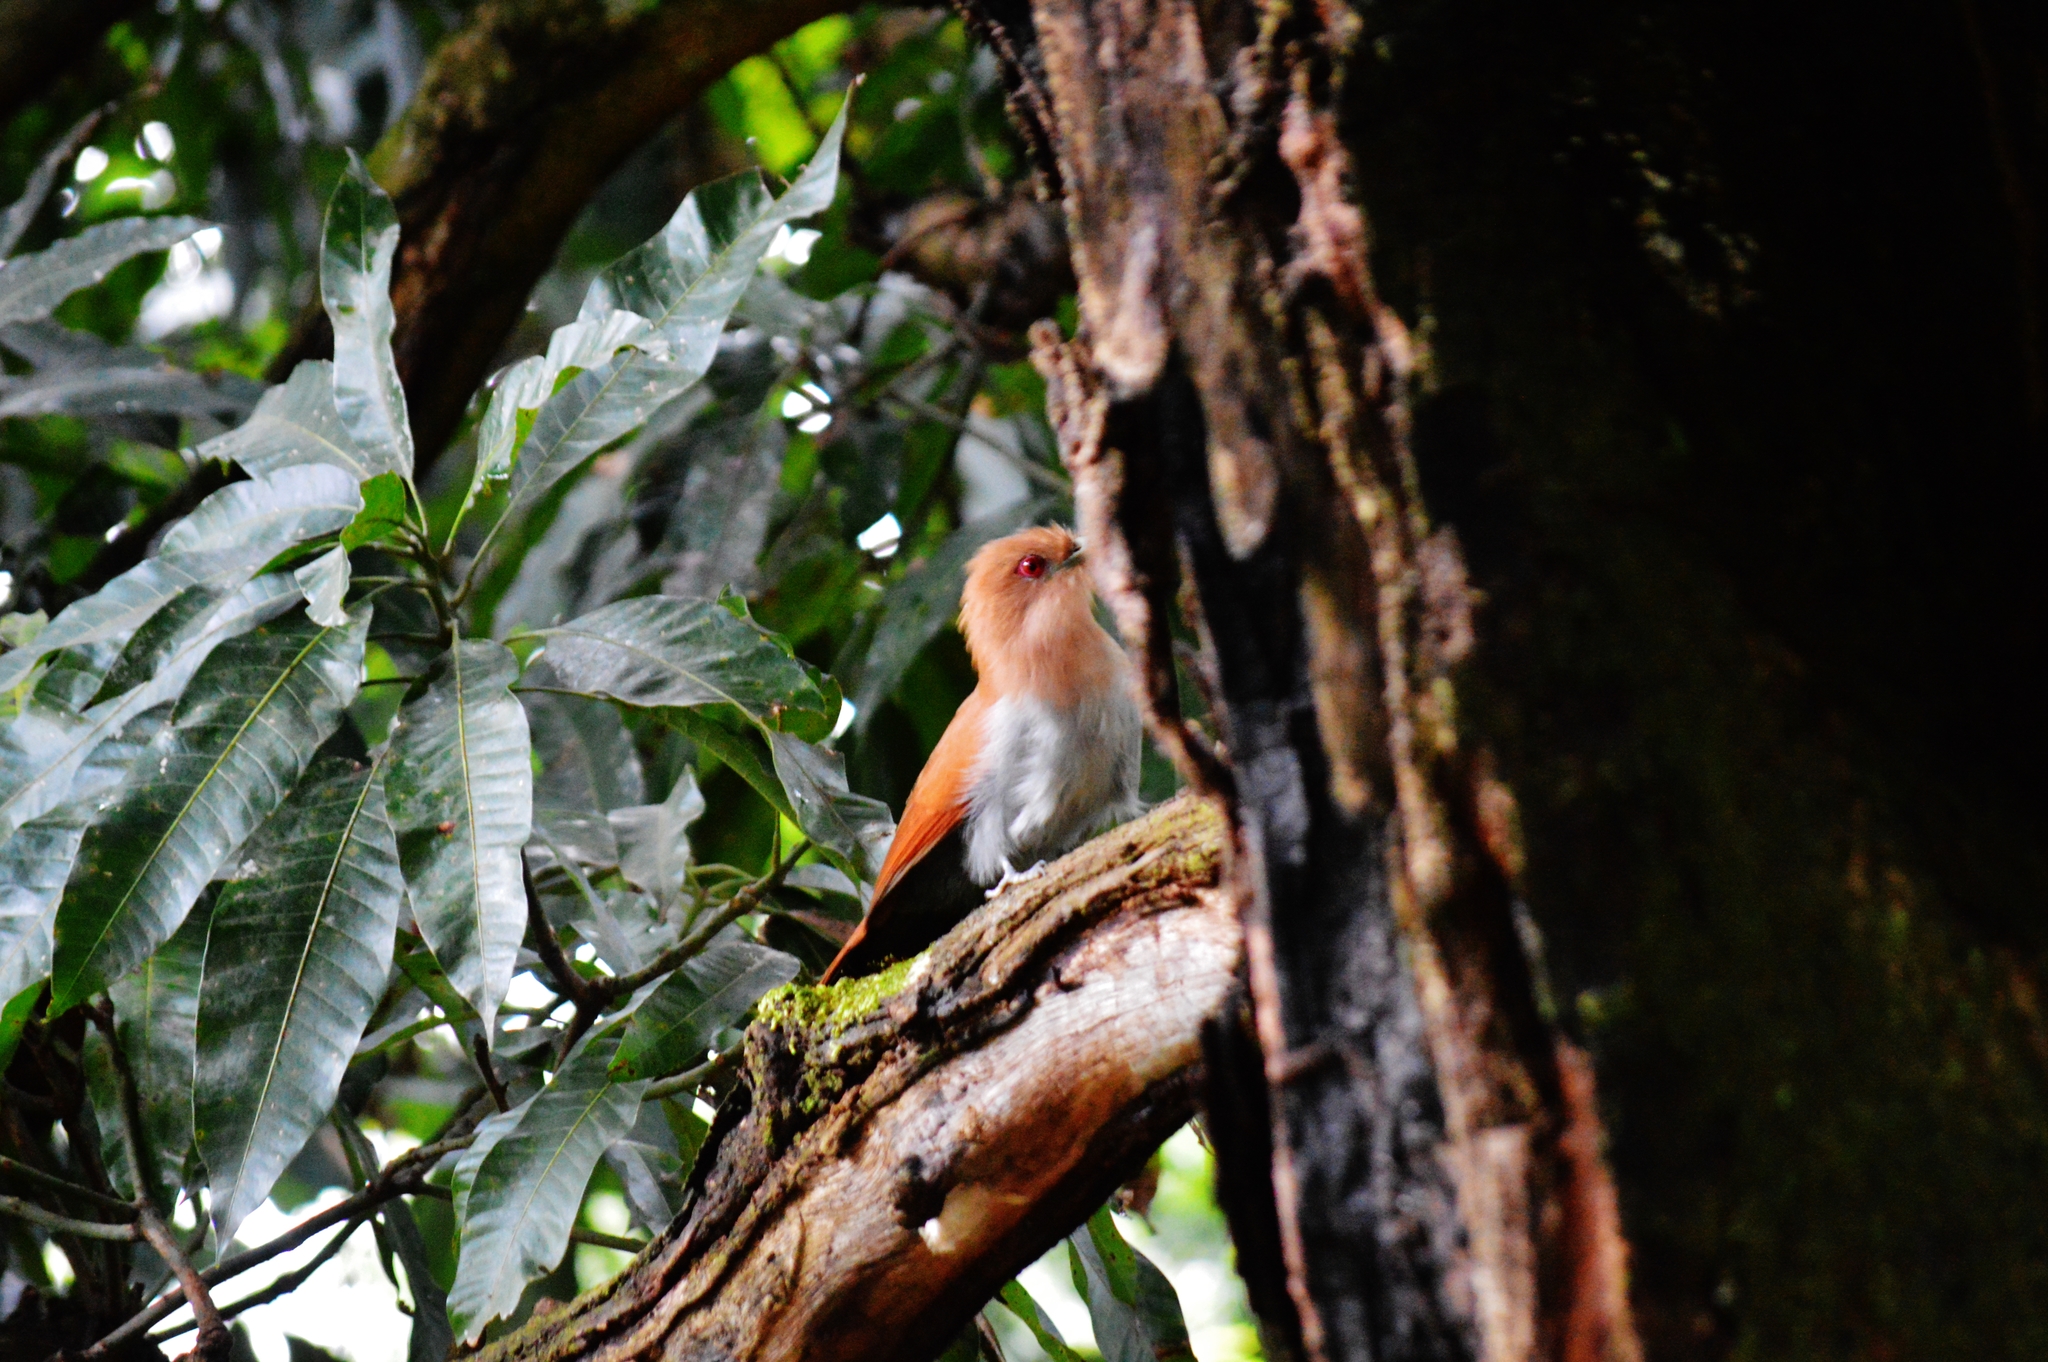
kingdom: Animalia
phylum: Chordata
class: Aves
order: Cuculiformes
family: Cuculidae
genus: Piaya
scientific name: Piaya cayana
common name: Squirrel cuckoo
